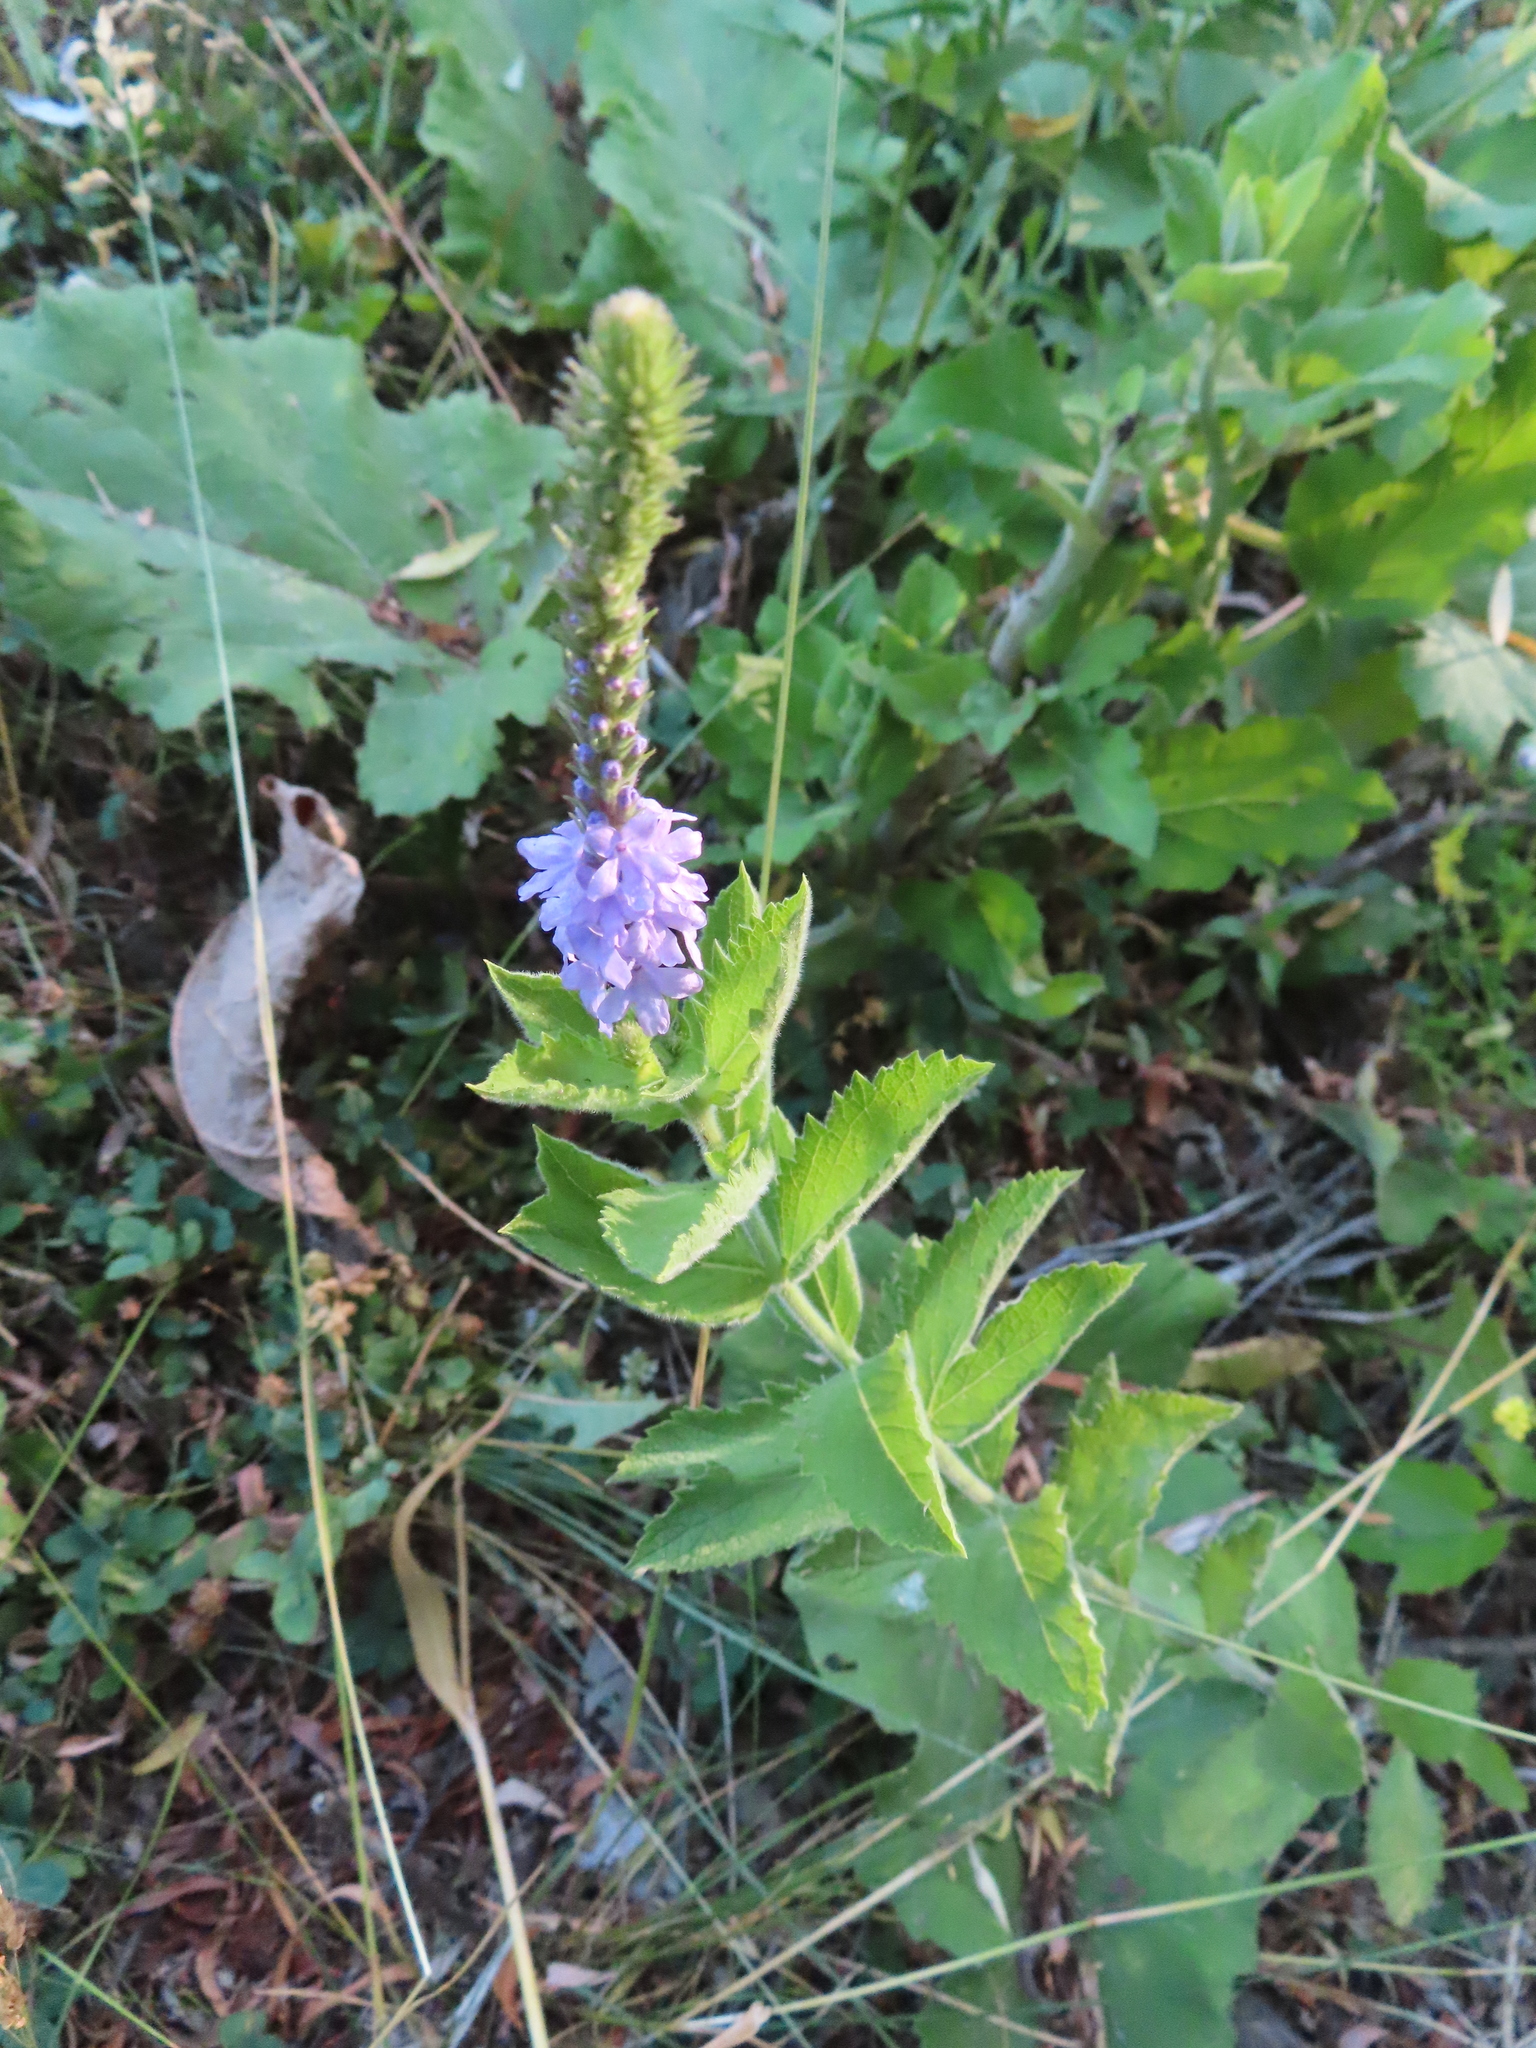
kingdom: Plantae
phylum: Tracheophyta
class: Magnoliopsida
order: Lamiales
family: Verbenaceae
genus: Verbena
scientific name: Verbena stricta
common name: Hoary vervain
